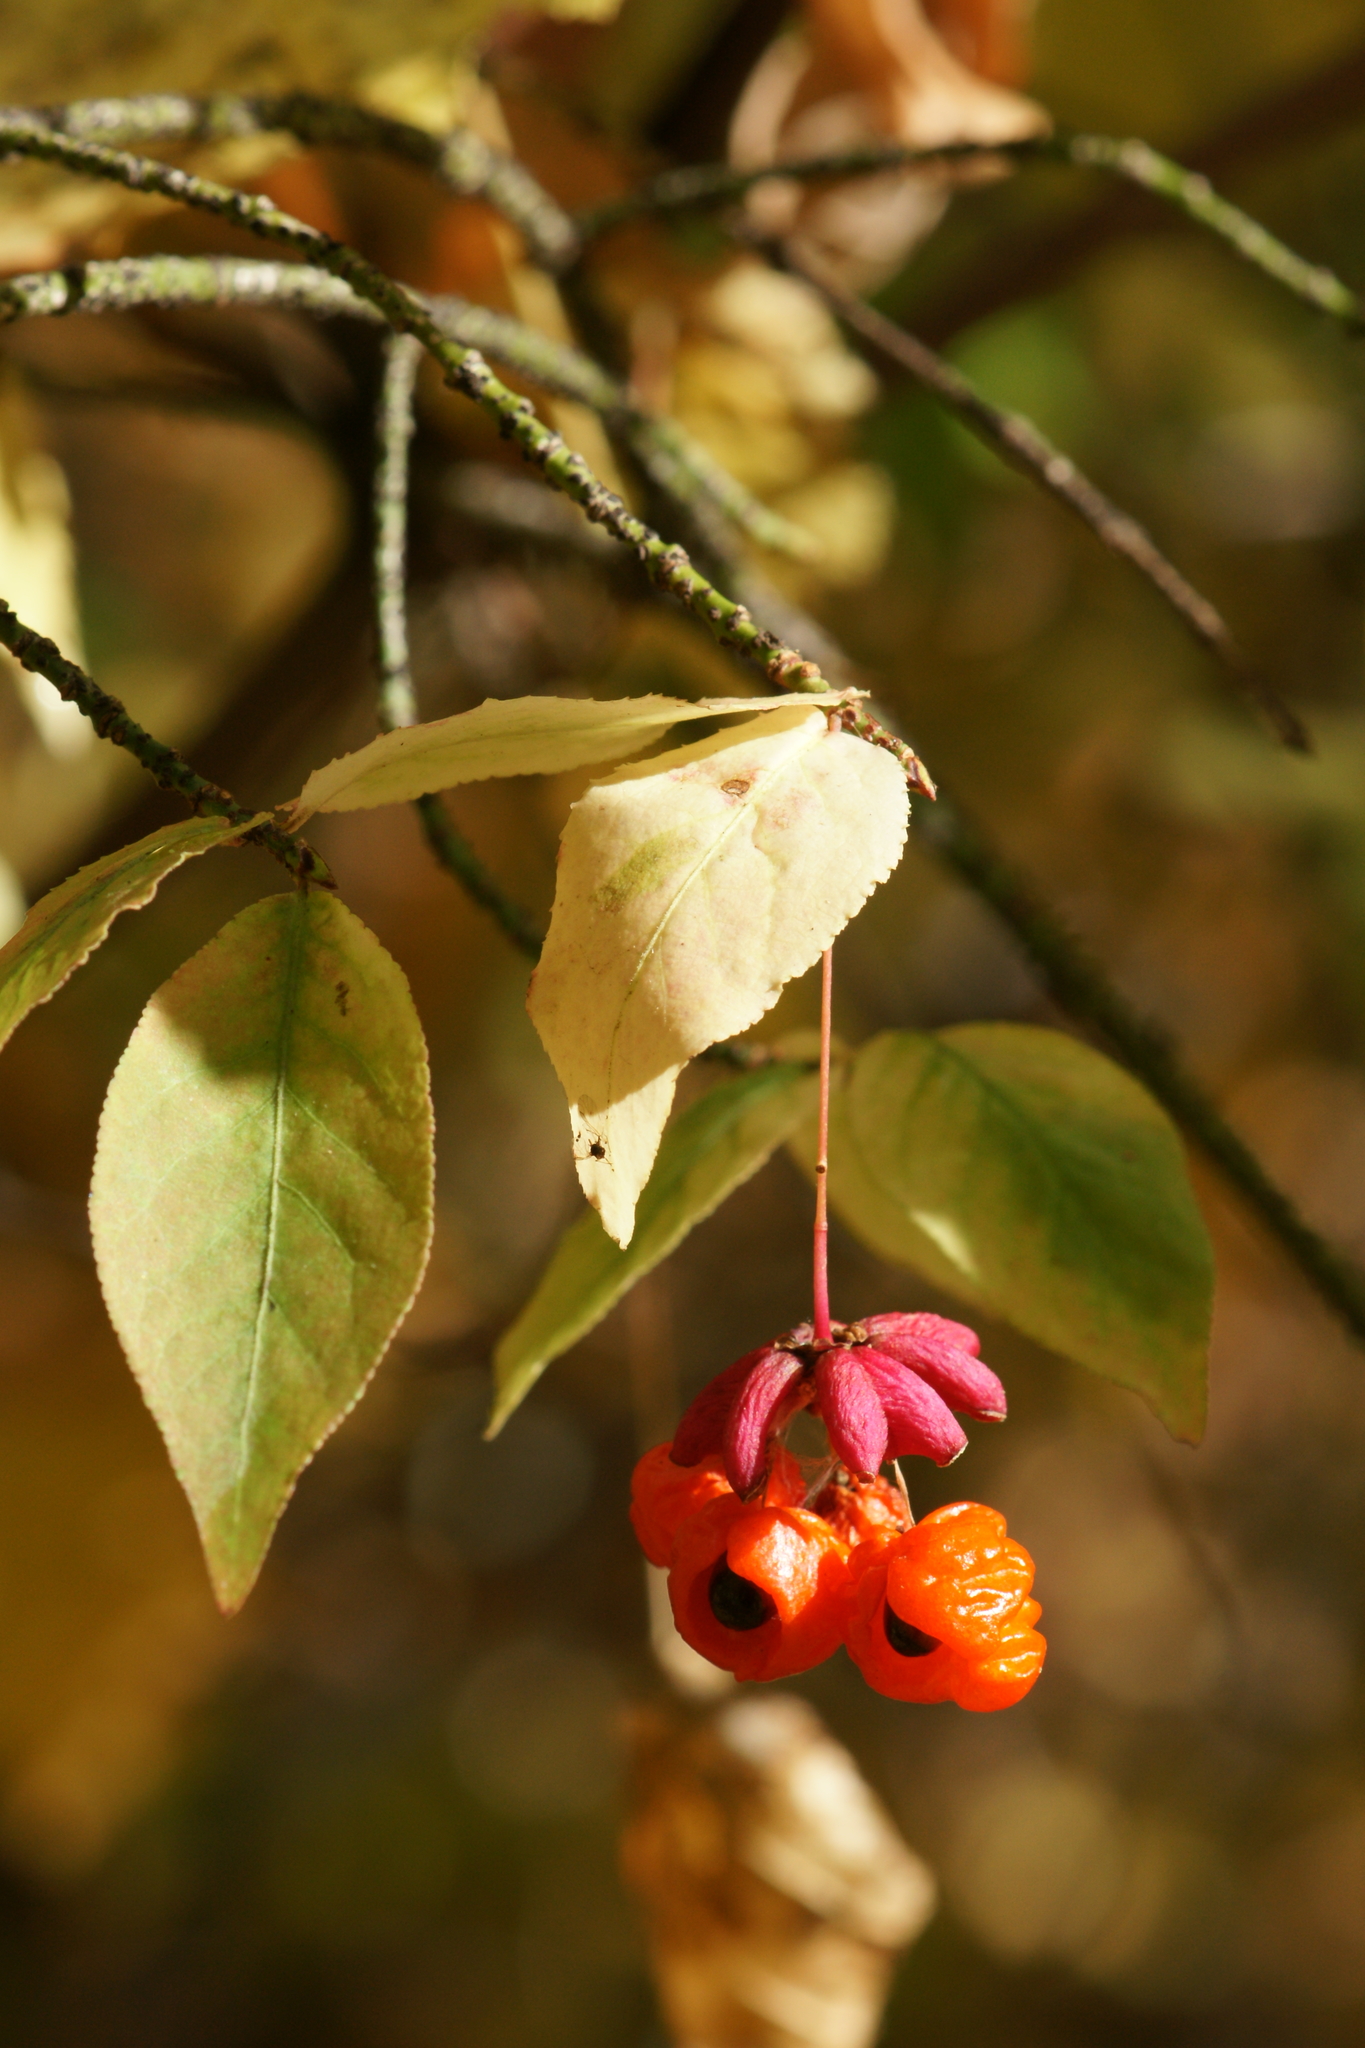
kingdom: Plantae
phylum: Tracheophyta
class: Magnoliopsida
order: Celastrales
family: Celastraceae
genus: Euonymus
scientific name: Euonymus verrucosus
